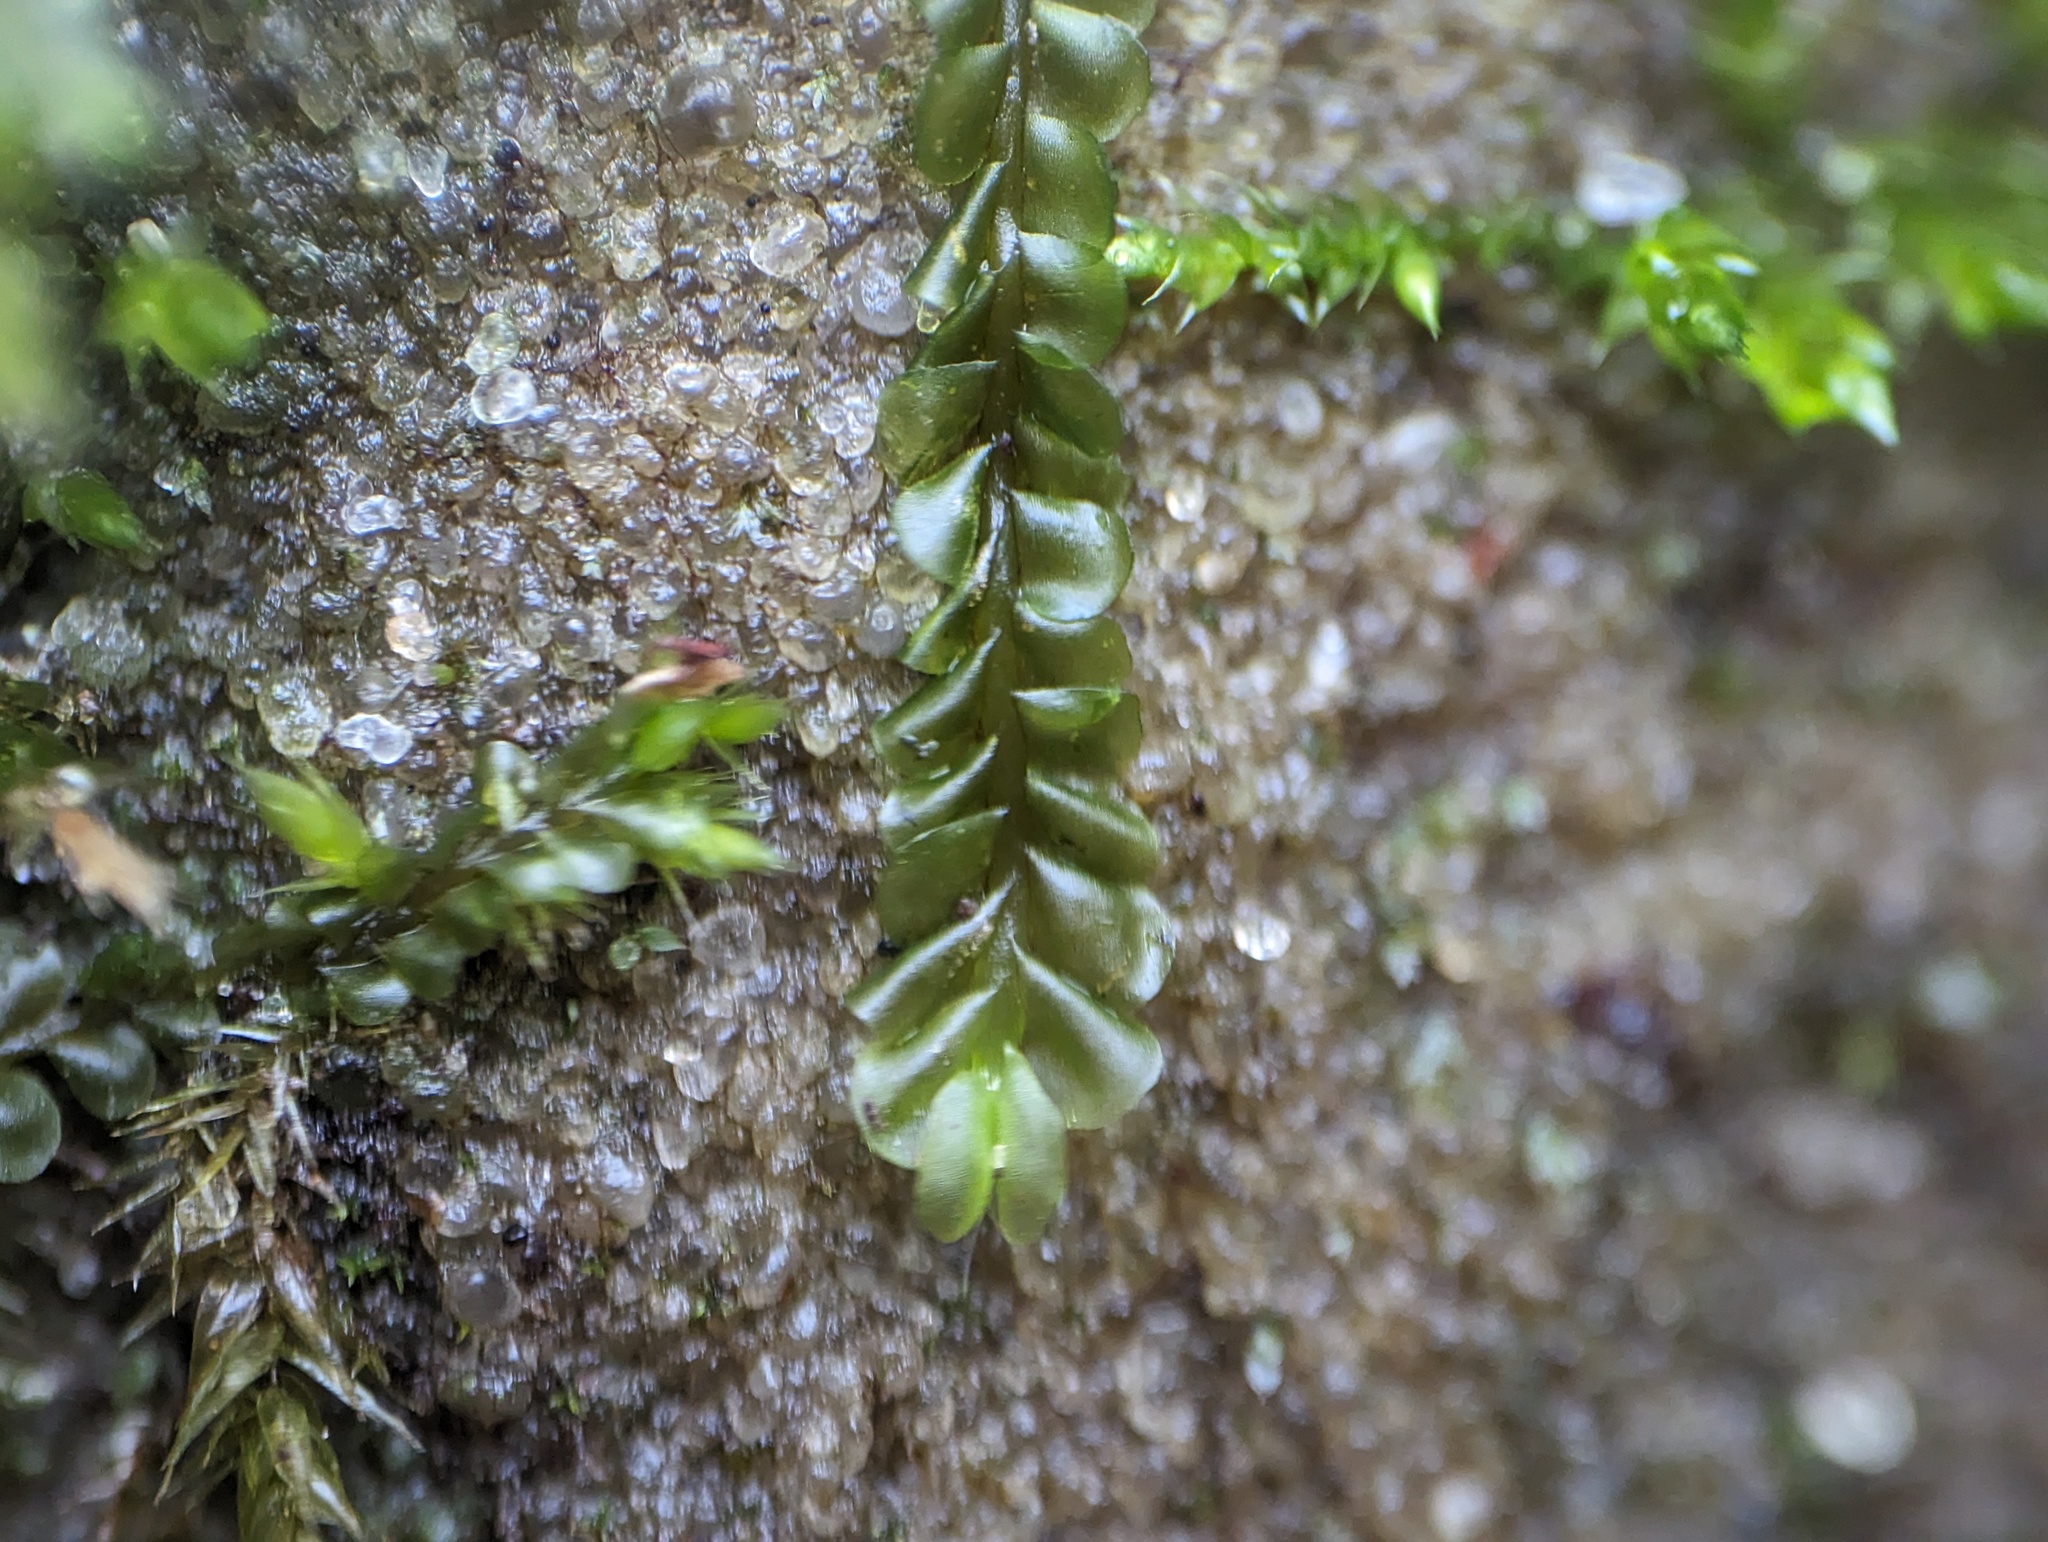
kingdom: Plantae
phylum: Marchantiophyta
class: Jungermanniopsida
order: Jungermanniales
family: Plagiochilaceae
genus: Plagiochila
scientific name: Plagiochila porelloides
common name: Lesser featherwort
